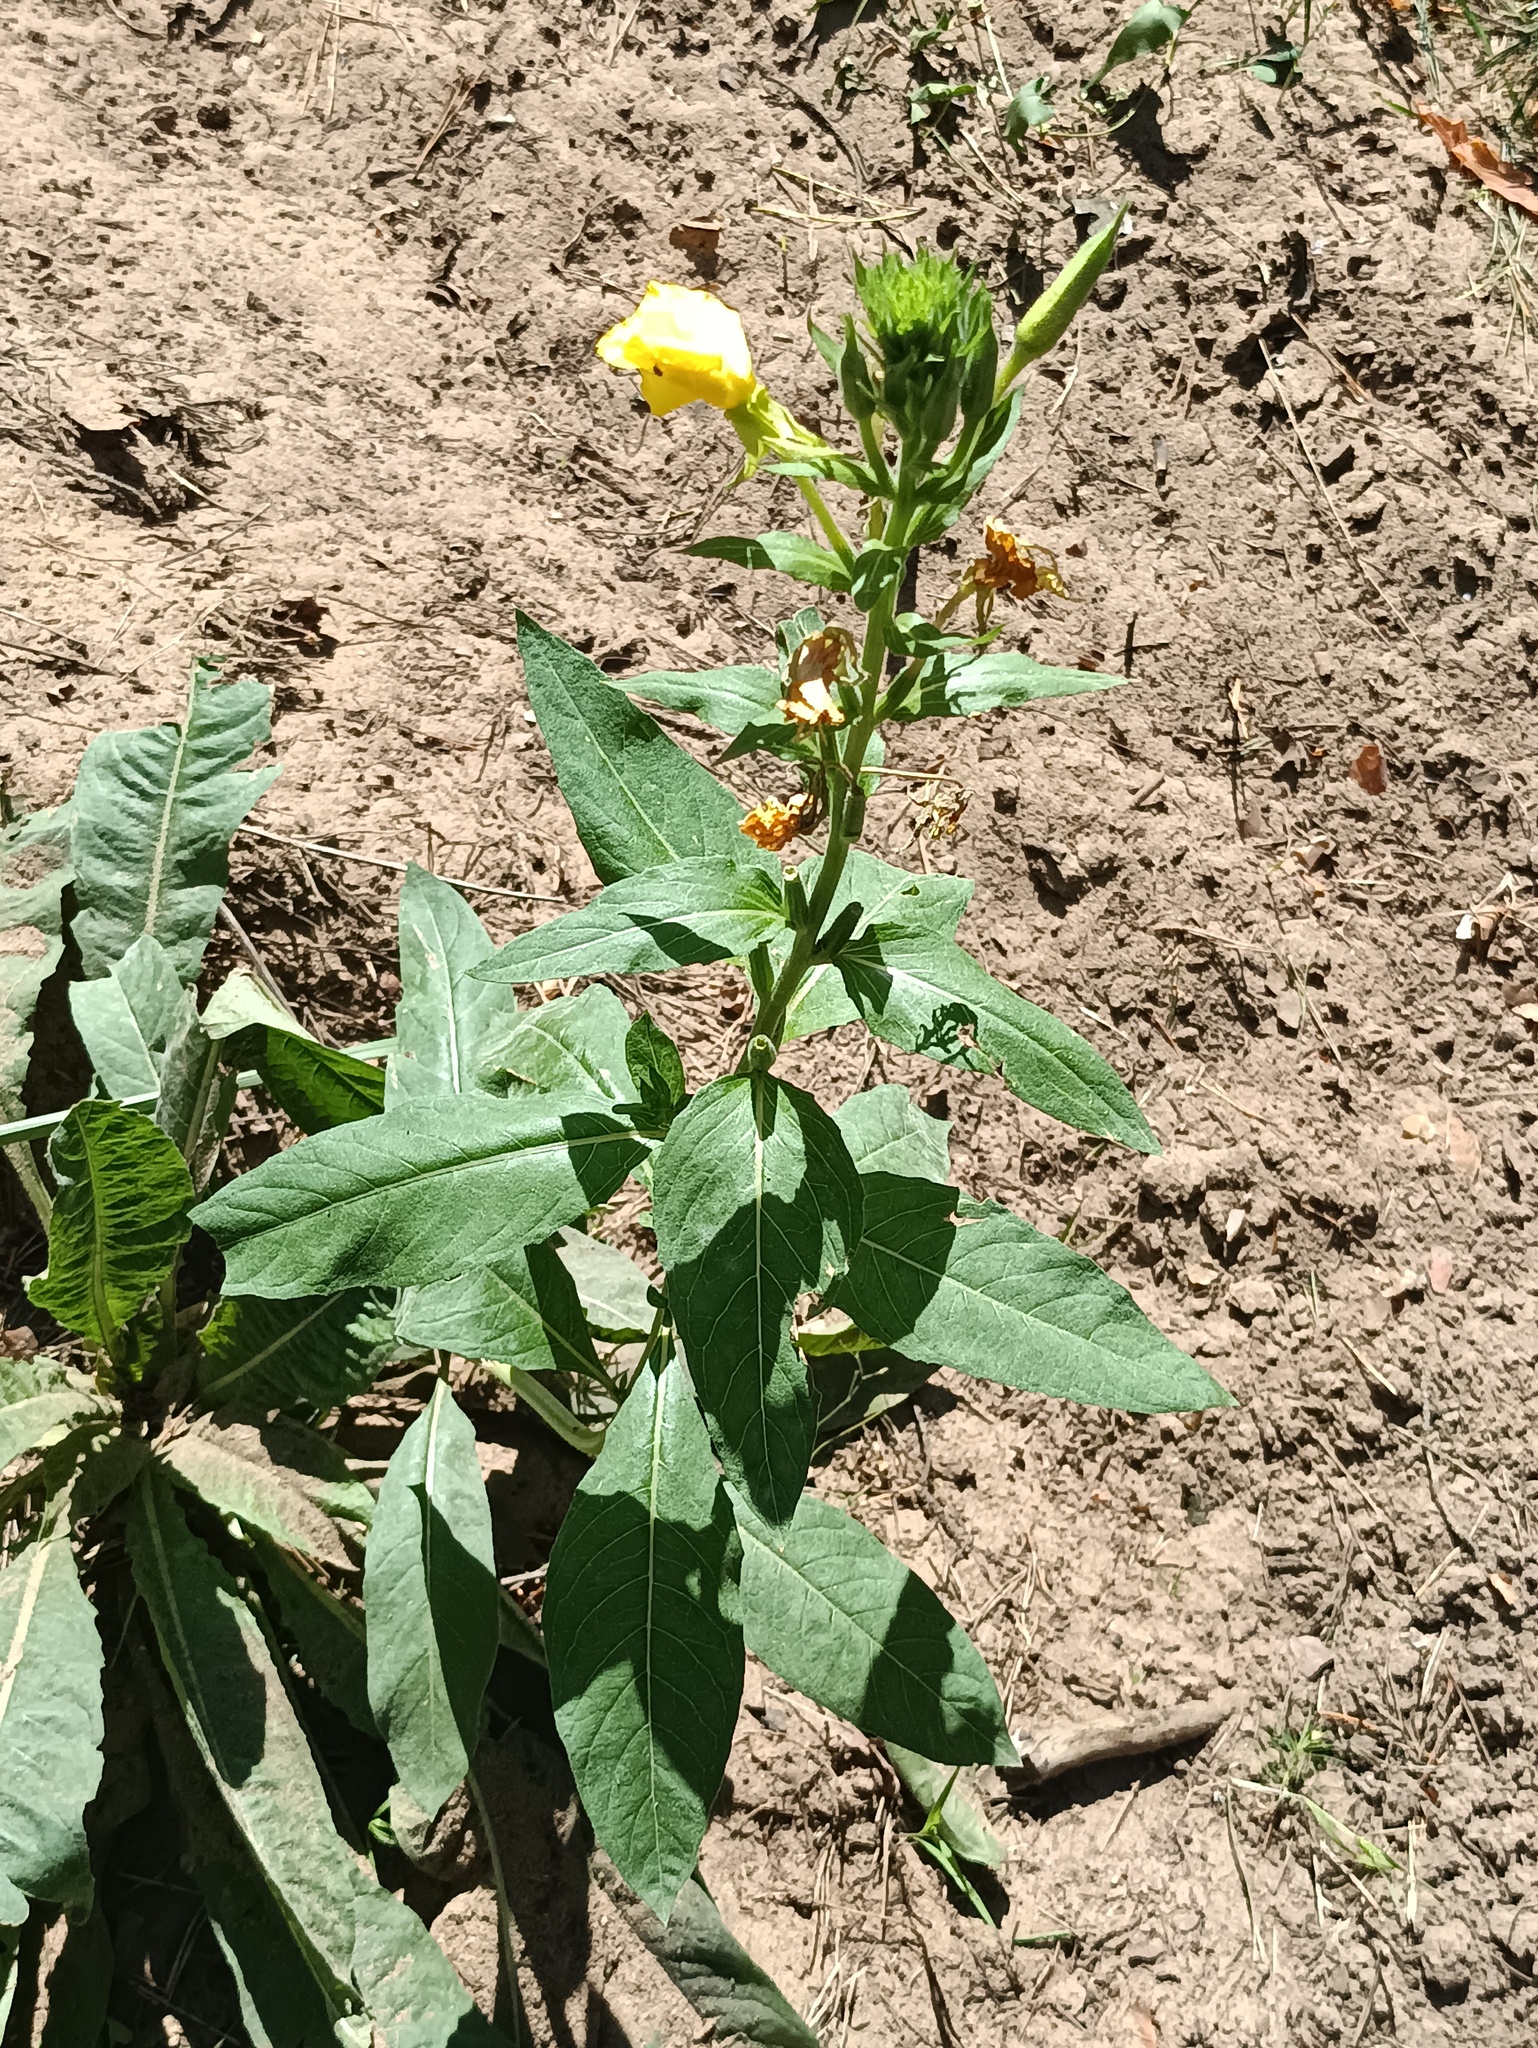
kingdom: Plantae
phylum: Tracheophyta
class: Magnoliopsida
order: Myrtales
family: Onagraceae
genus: Oenothera
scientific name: Oenothera biennis
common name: Common evening-primrose
